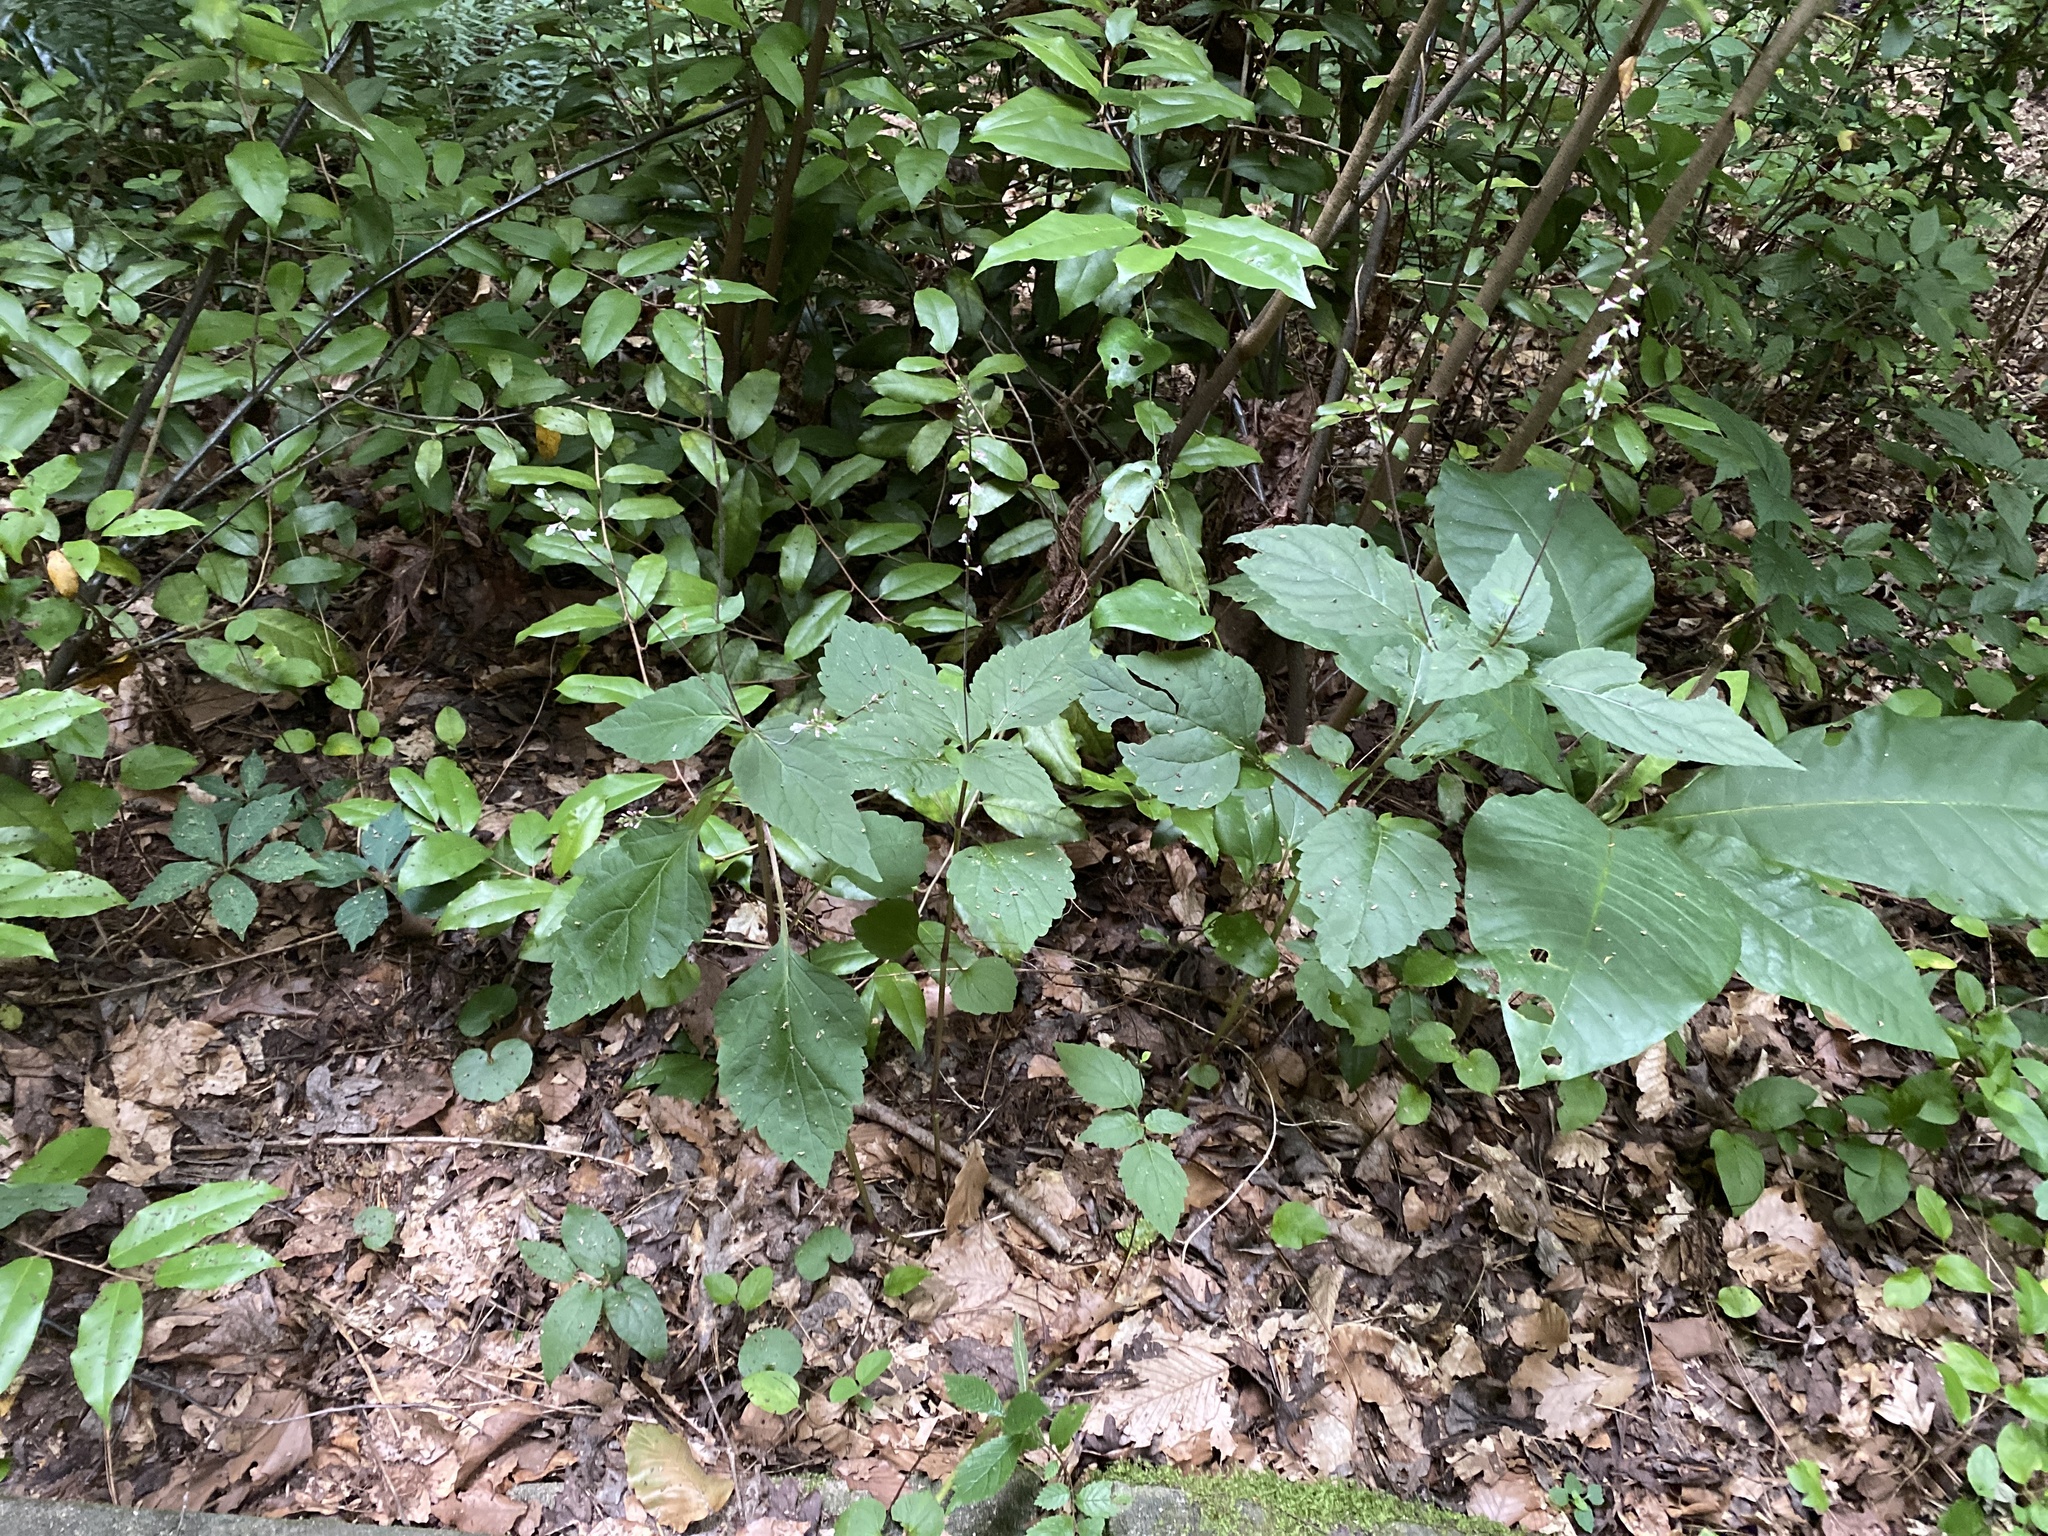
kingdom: Plantae
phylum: Tracheophyta
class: Magnoliopsida
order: Lamiales
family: Phrymaceae
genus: Phryma
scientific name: Phryma leptostachya
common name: American lopseed
